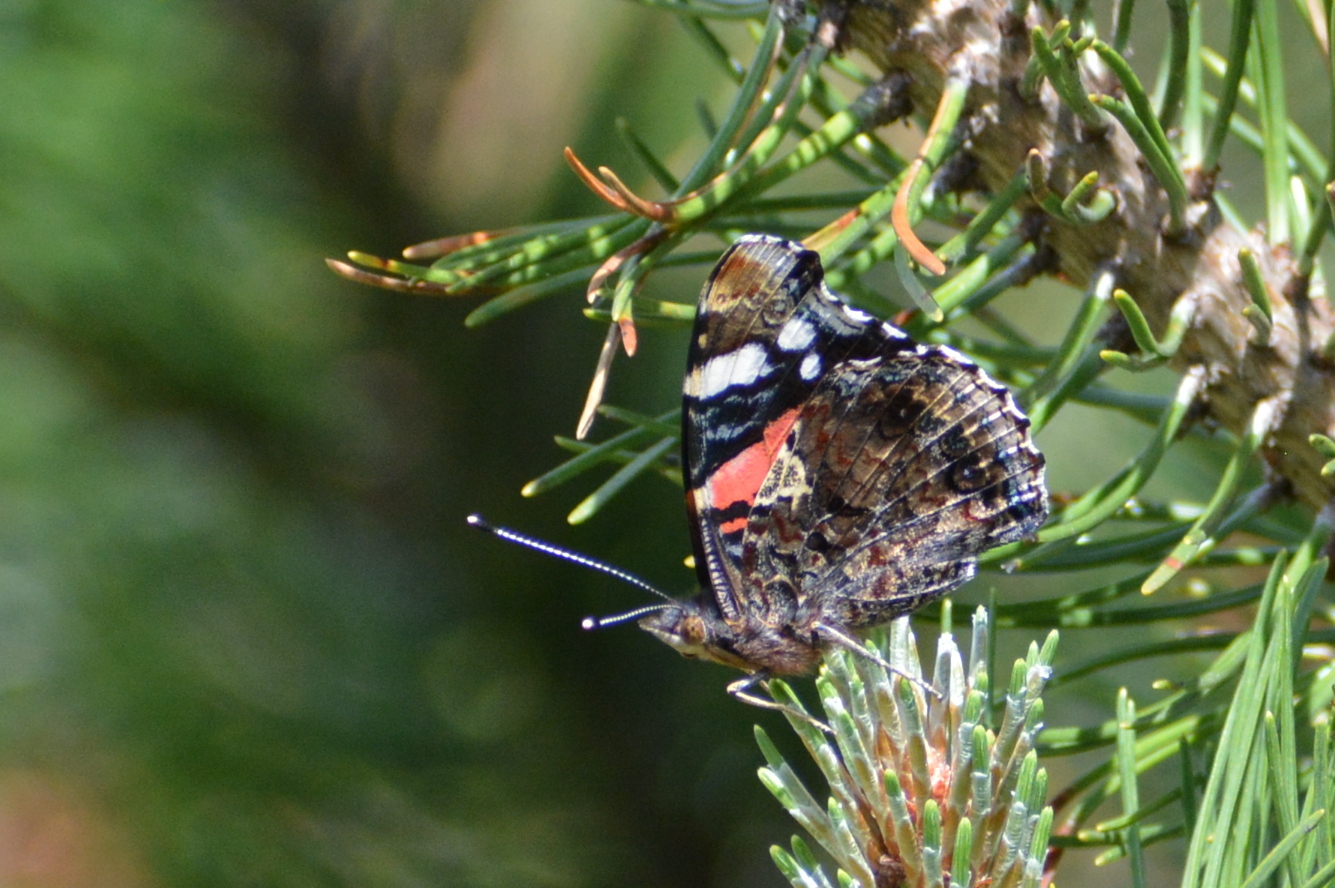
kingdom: Animalia
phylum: Arthropoda
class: Insecta
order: Lepidoptera
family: Nymphalidae
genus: Vanessa
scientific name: Vanessa atalanta
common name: Red admiral
